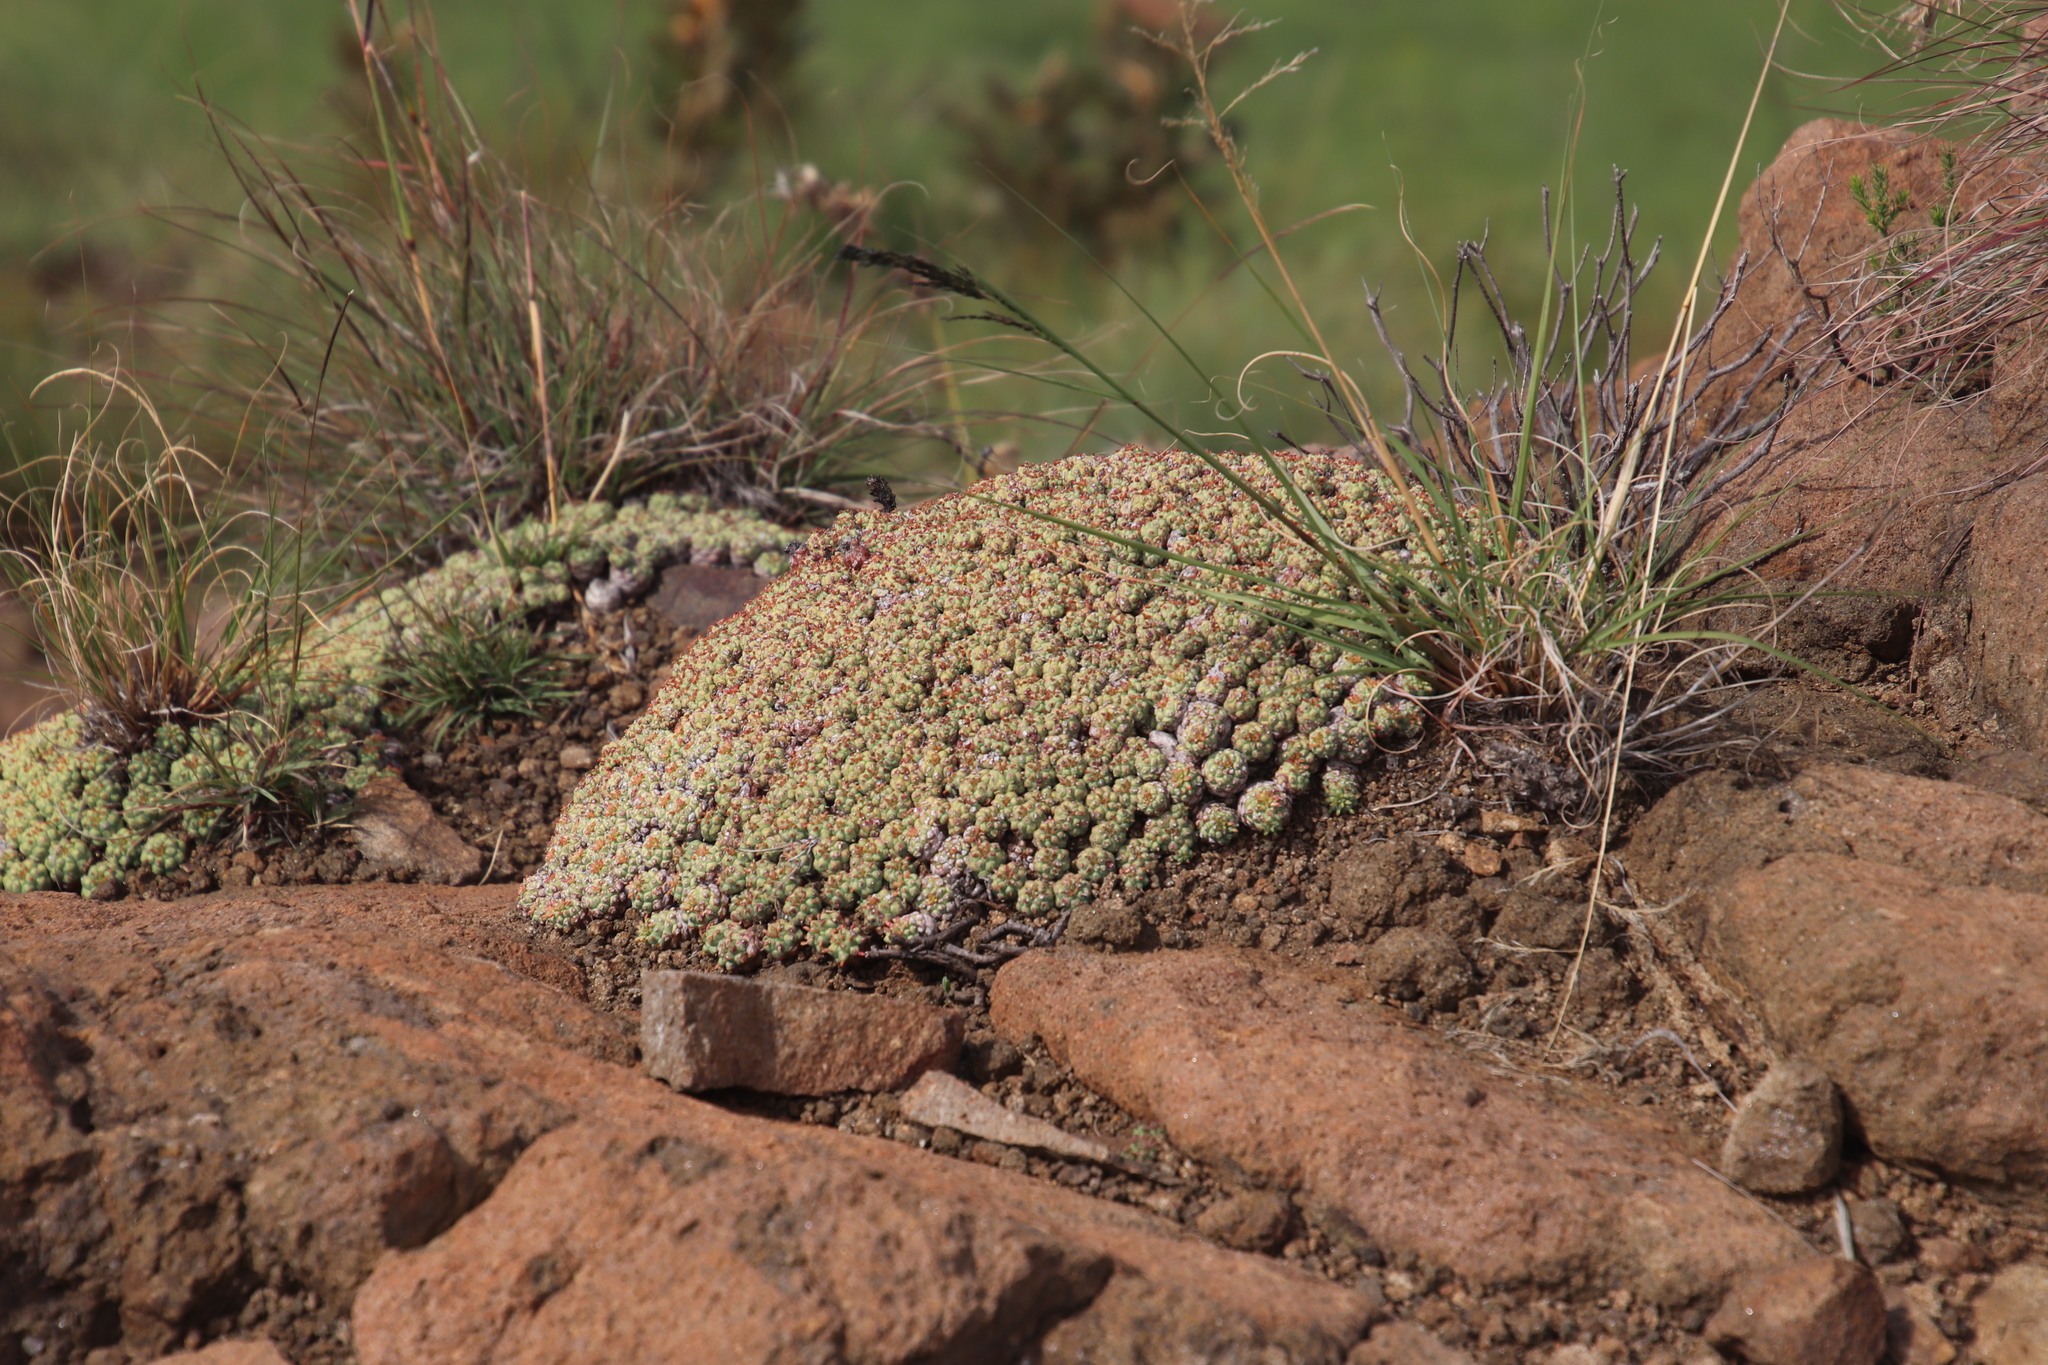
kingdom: Plantae
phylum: Tracheophyta
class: Magnoliopsida
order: Malpighiales
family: Euphorbiaceae
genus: Euphorbia
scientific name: Euphorbia clavarioides
